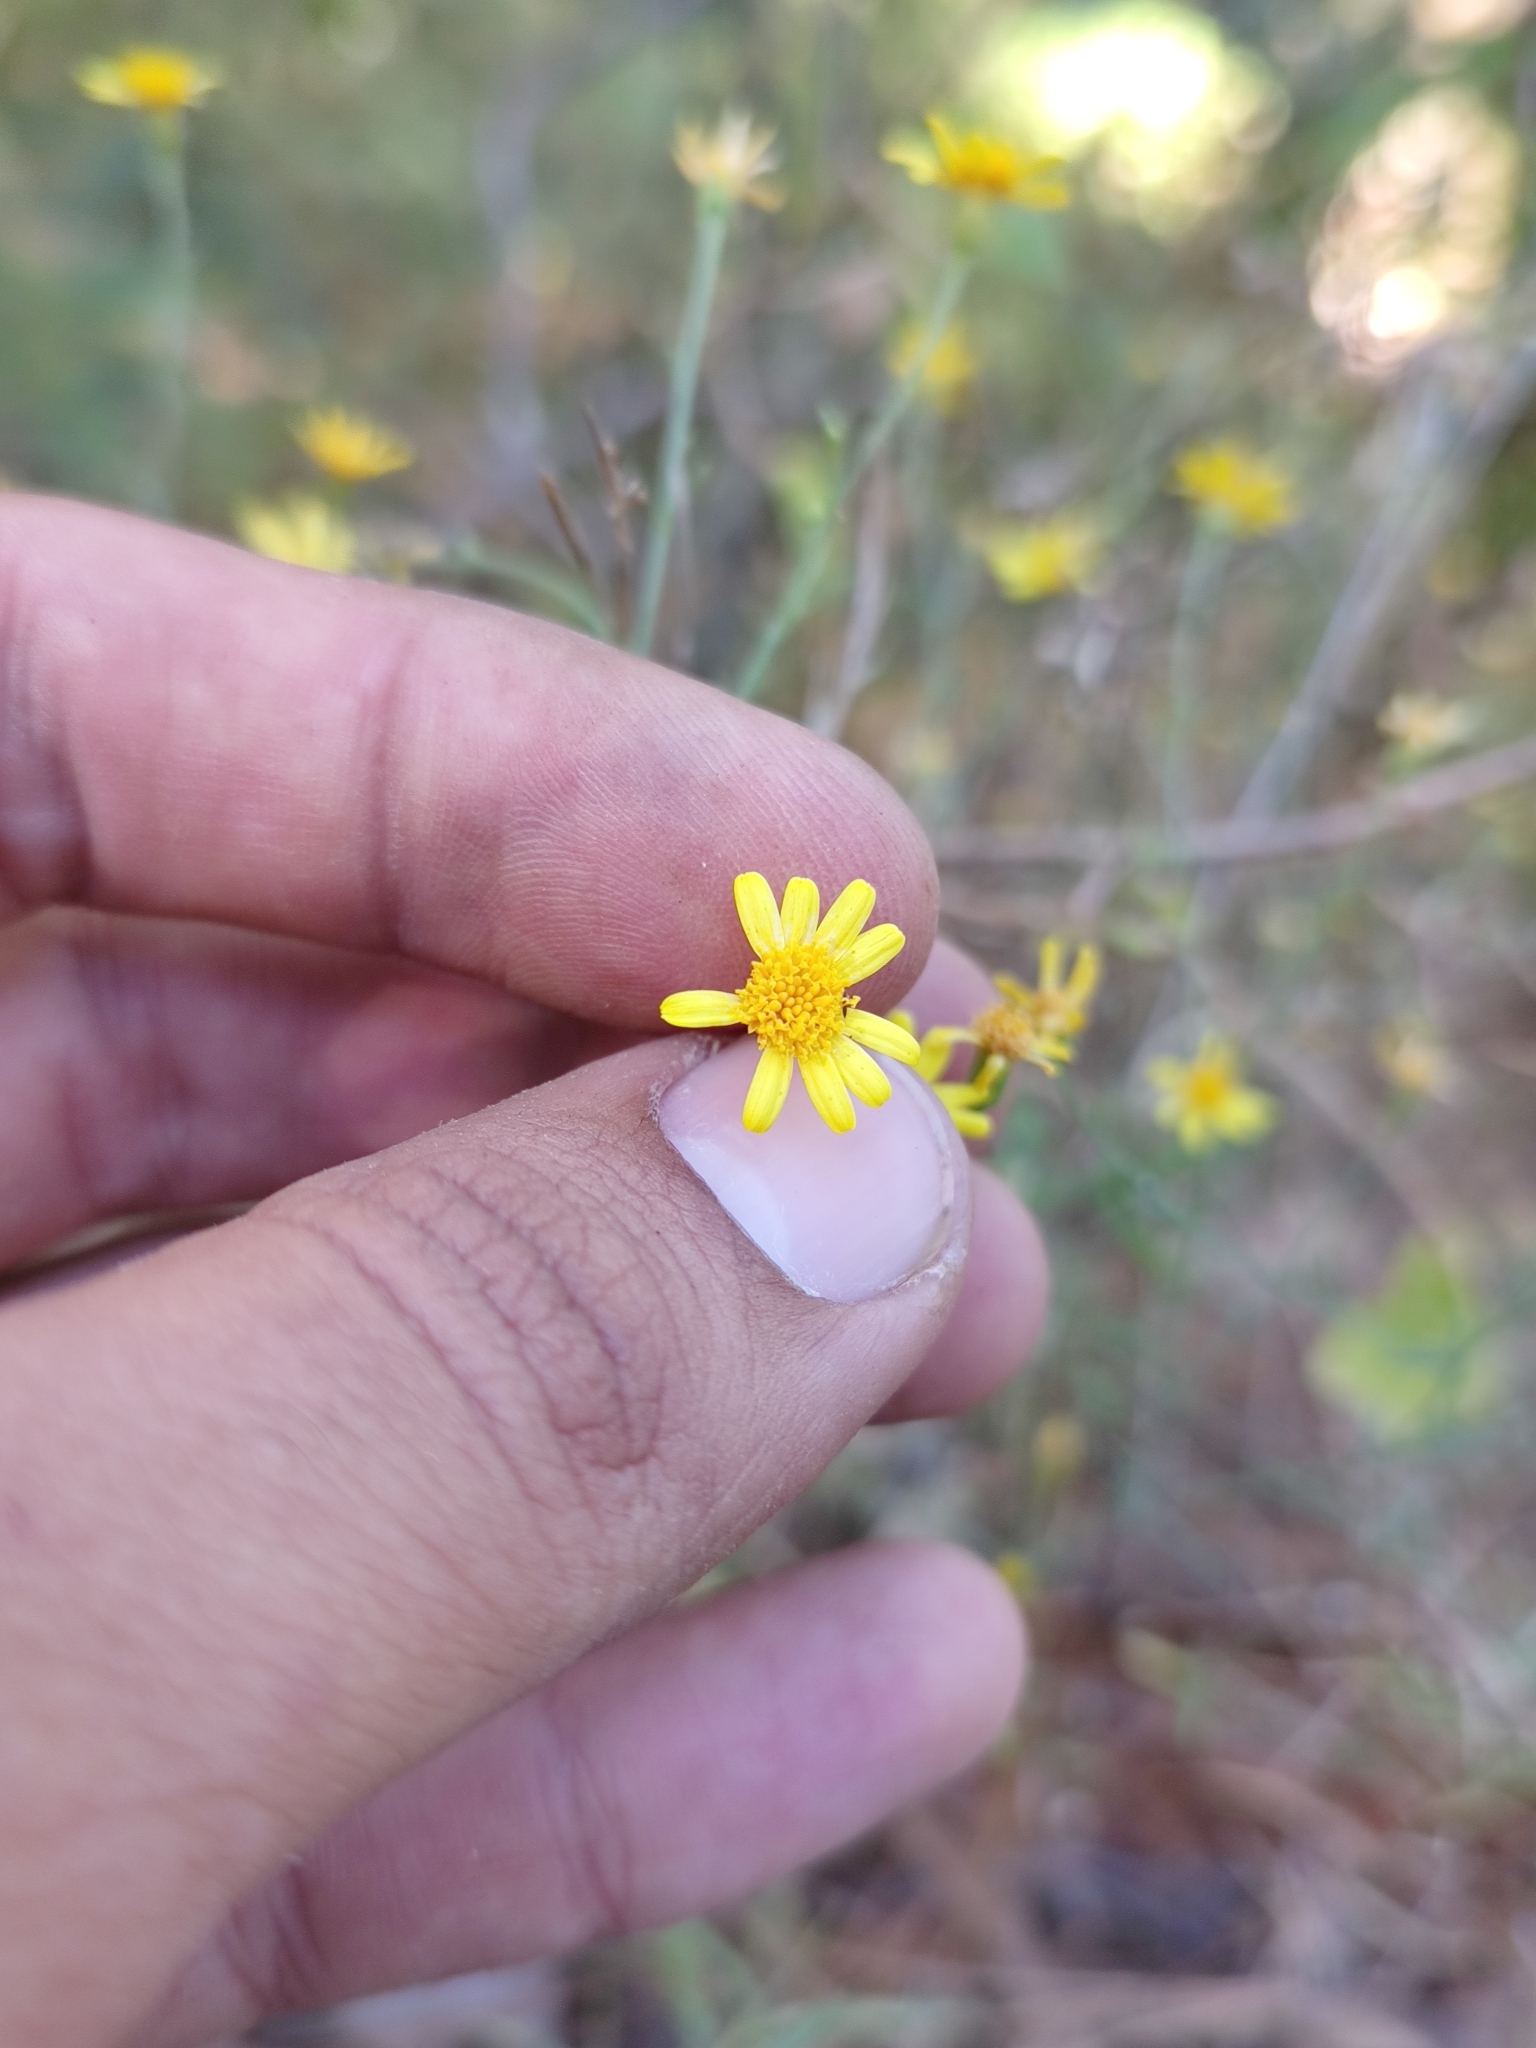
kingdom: Plantae
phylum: Tracheophyta
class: Magnoliopsida
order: Asterales
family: Asteraceae
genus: Oxypappus
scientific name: Oxypappus scaber
